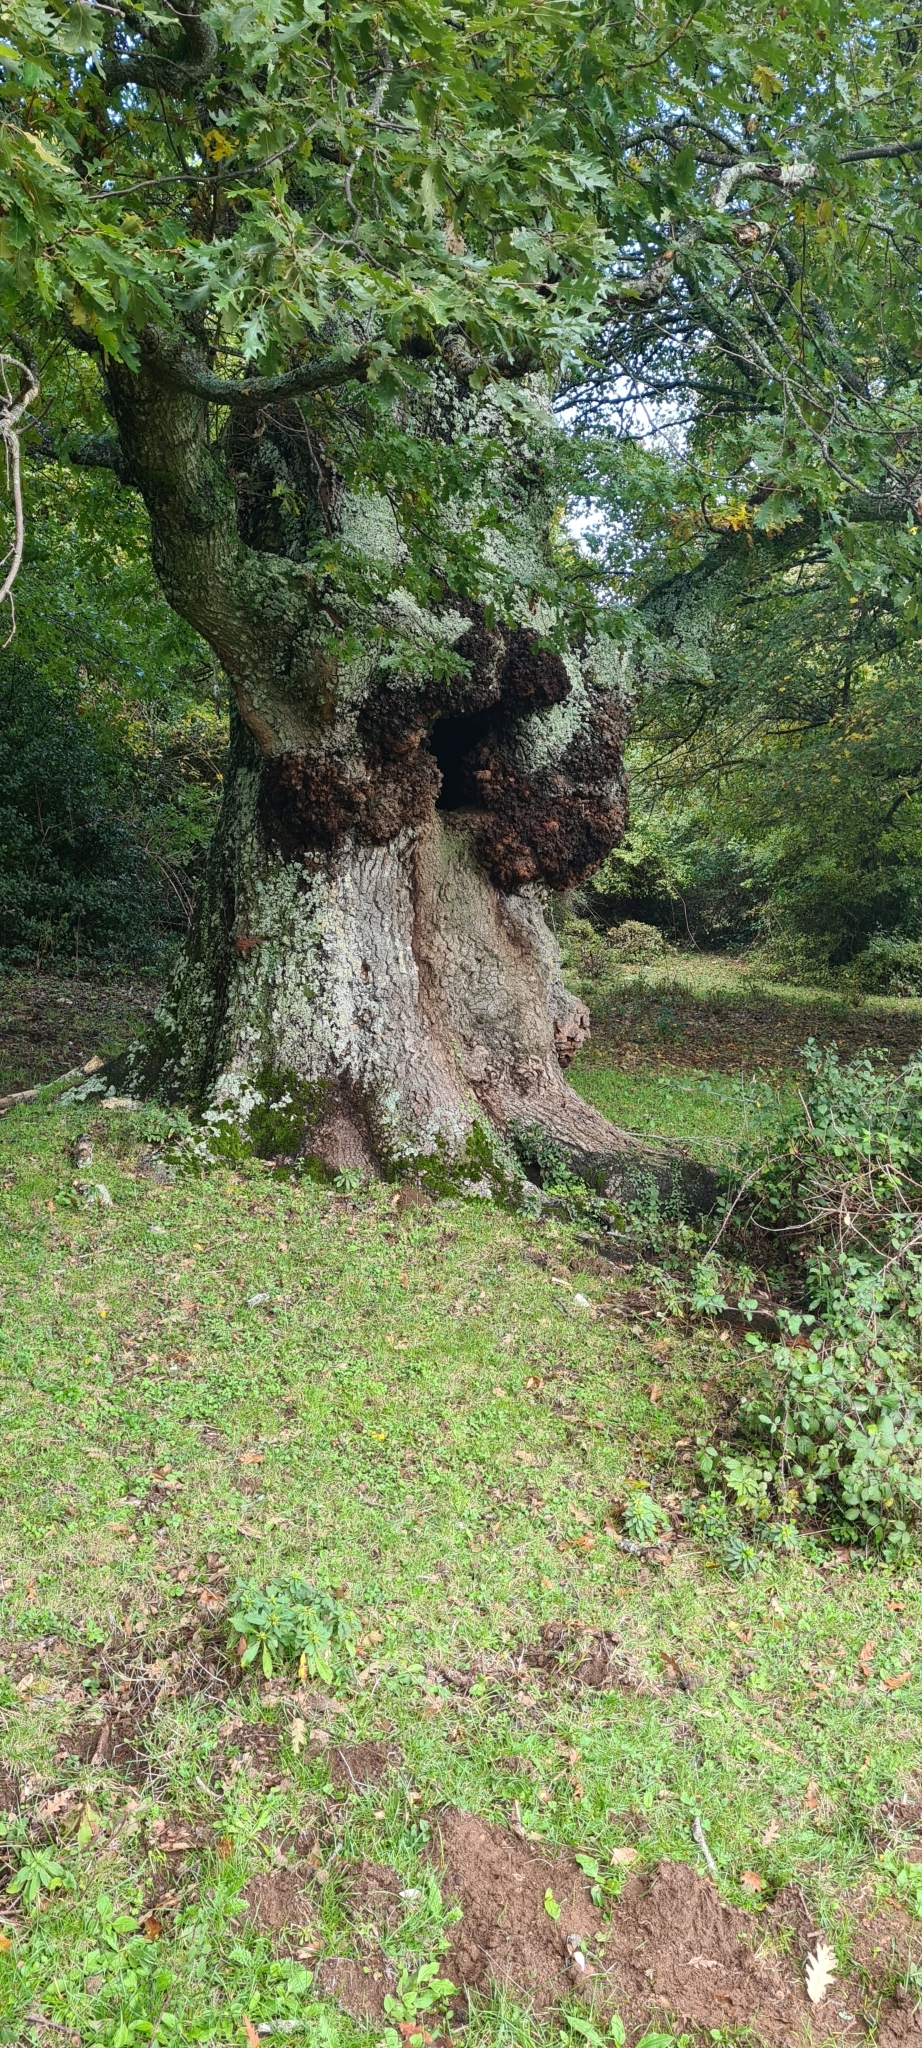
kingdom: Plantae
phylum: Tracheophyta
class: Magnoliopsida
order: Fagales
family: Fagaceae
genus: Quercus
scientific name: Quercus cerris
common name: Turkey oak
